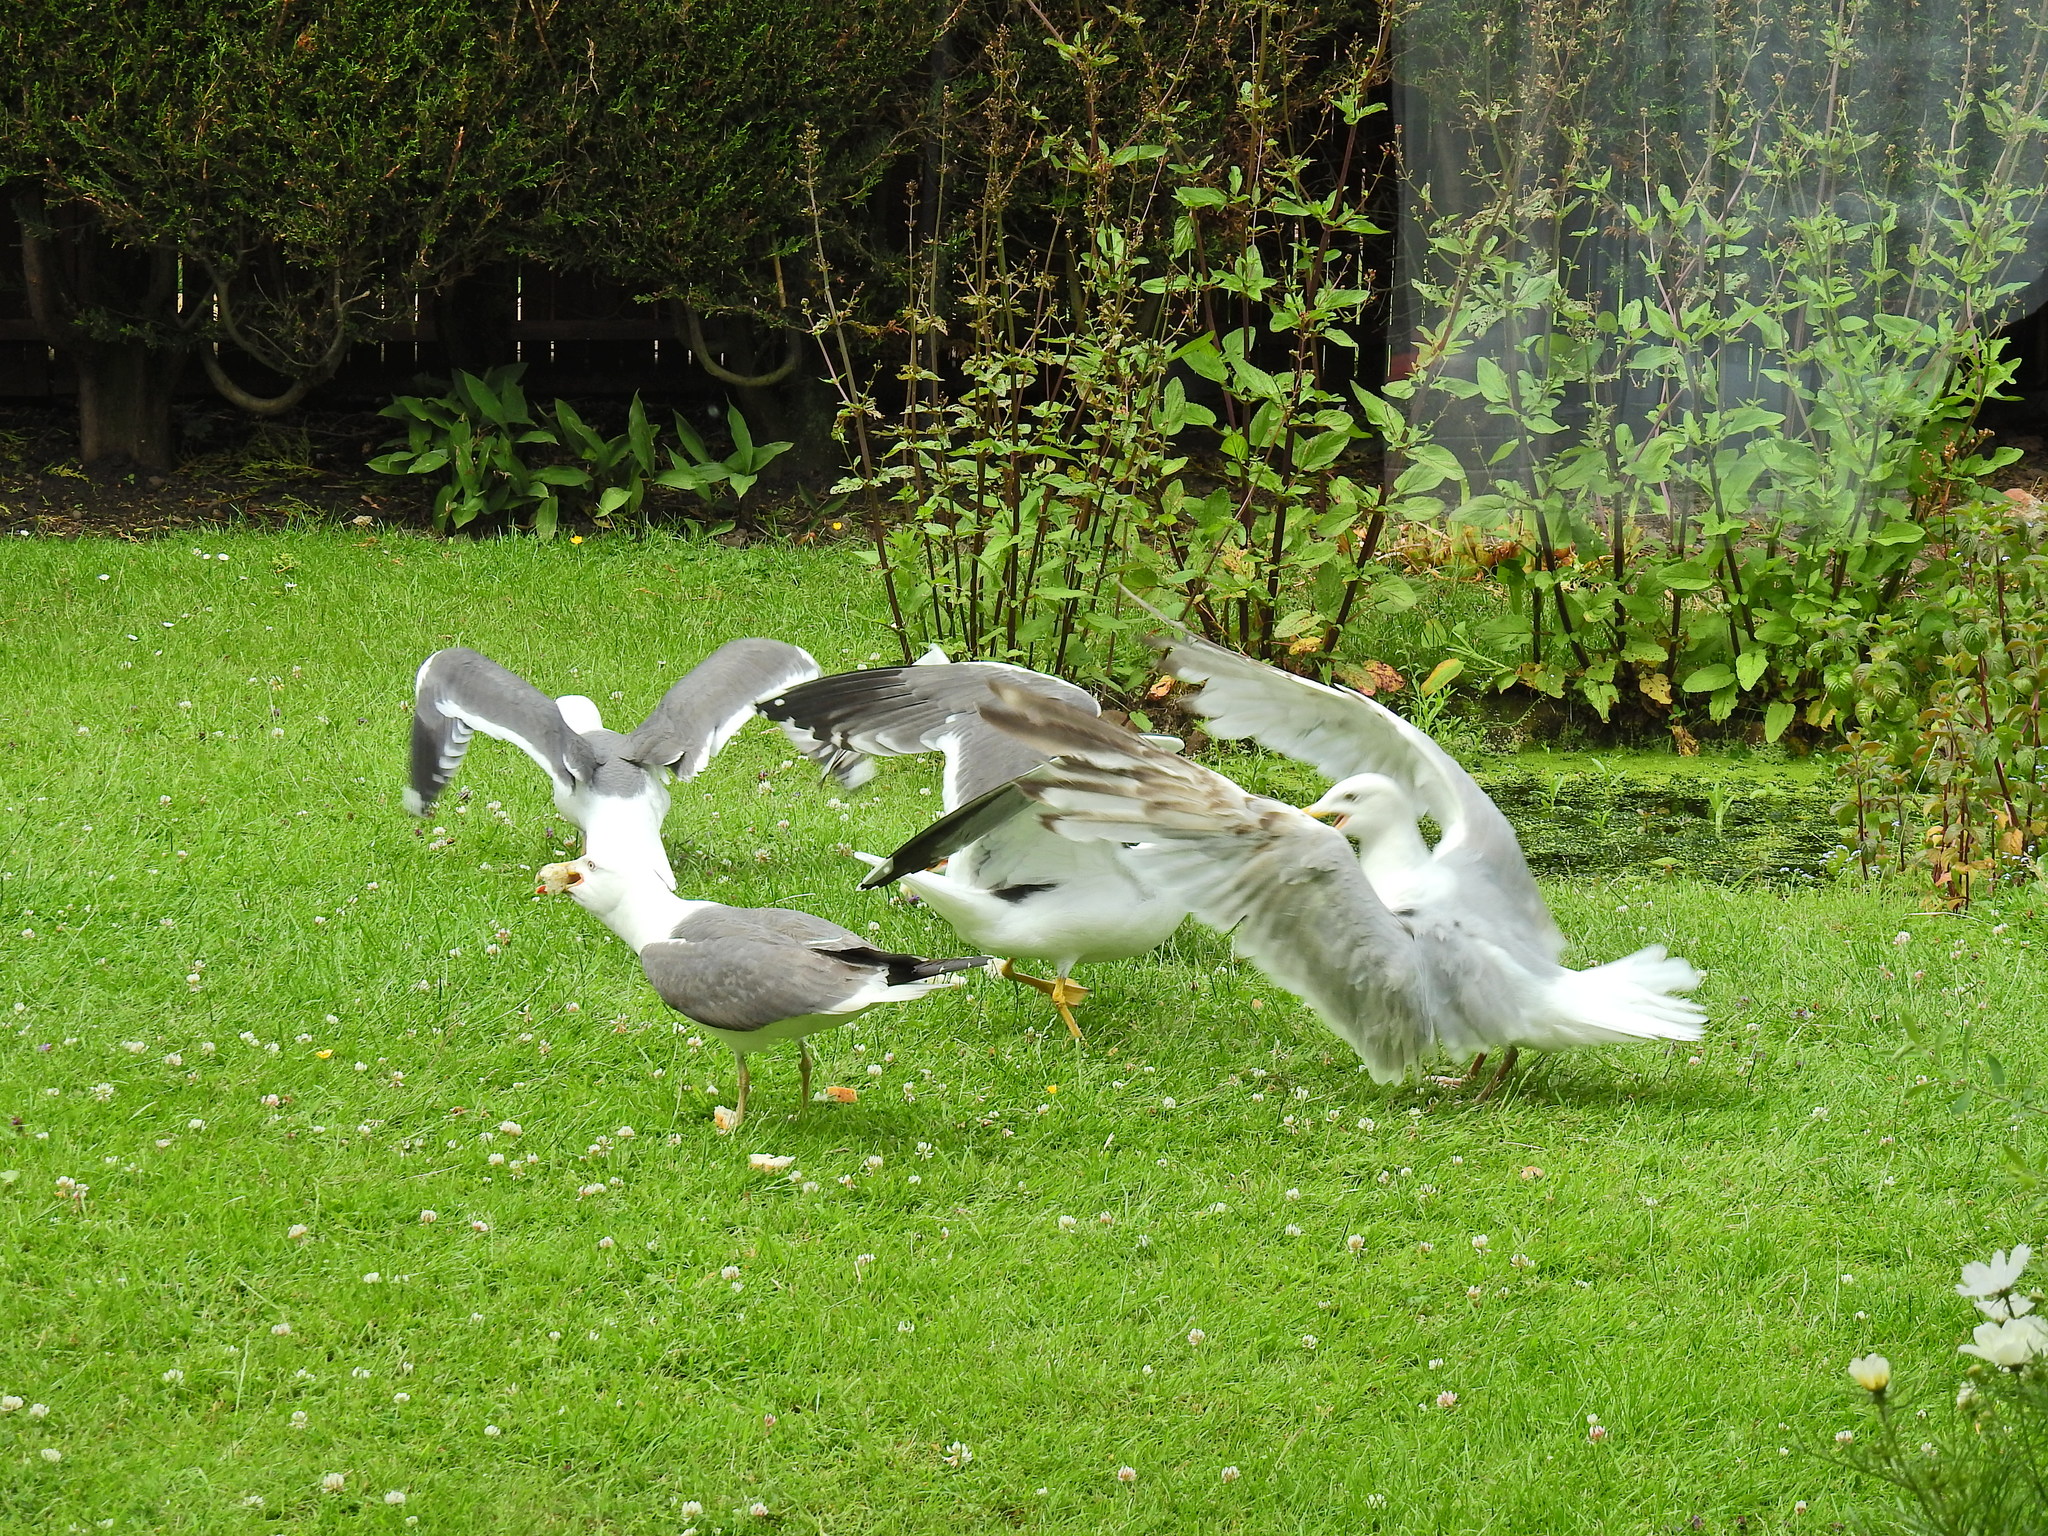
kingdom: Animalia
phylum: Chordata
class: Aves
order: Charadriiformes
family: Laridae
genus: Larus
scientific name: Larus fuscus
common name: Lesser black-backed gull
